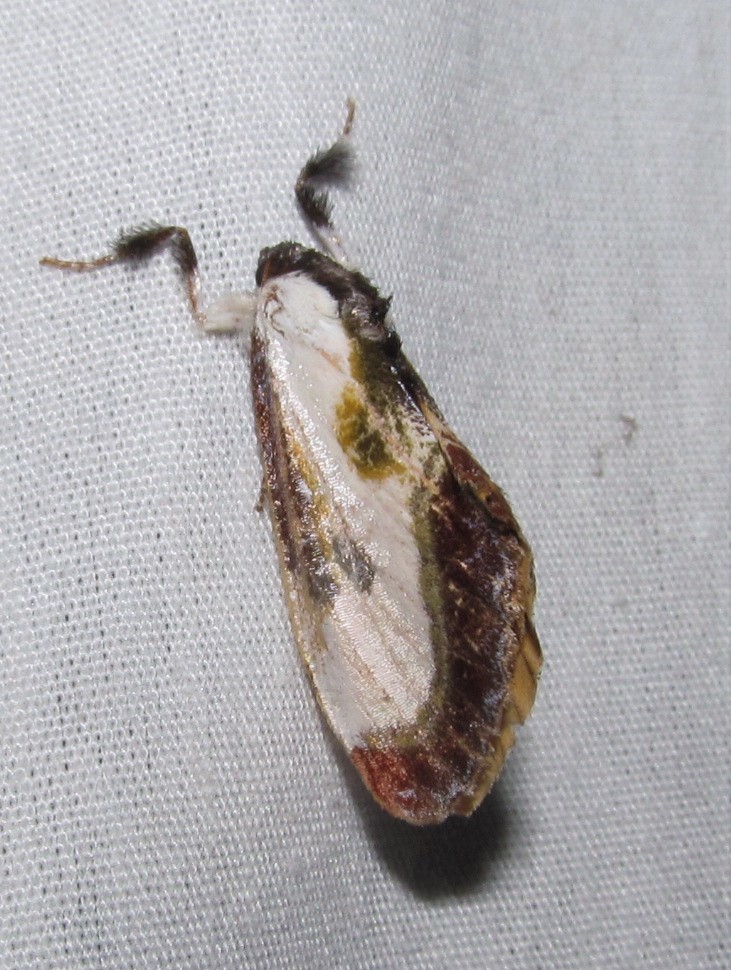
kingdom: Animalia
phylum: Arthropoda
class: Insecta
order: Lepidoptera
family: Noctuidae
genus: Eudryas
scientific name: Eudryas grata
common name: Beautiful wood-nymph
